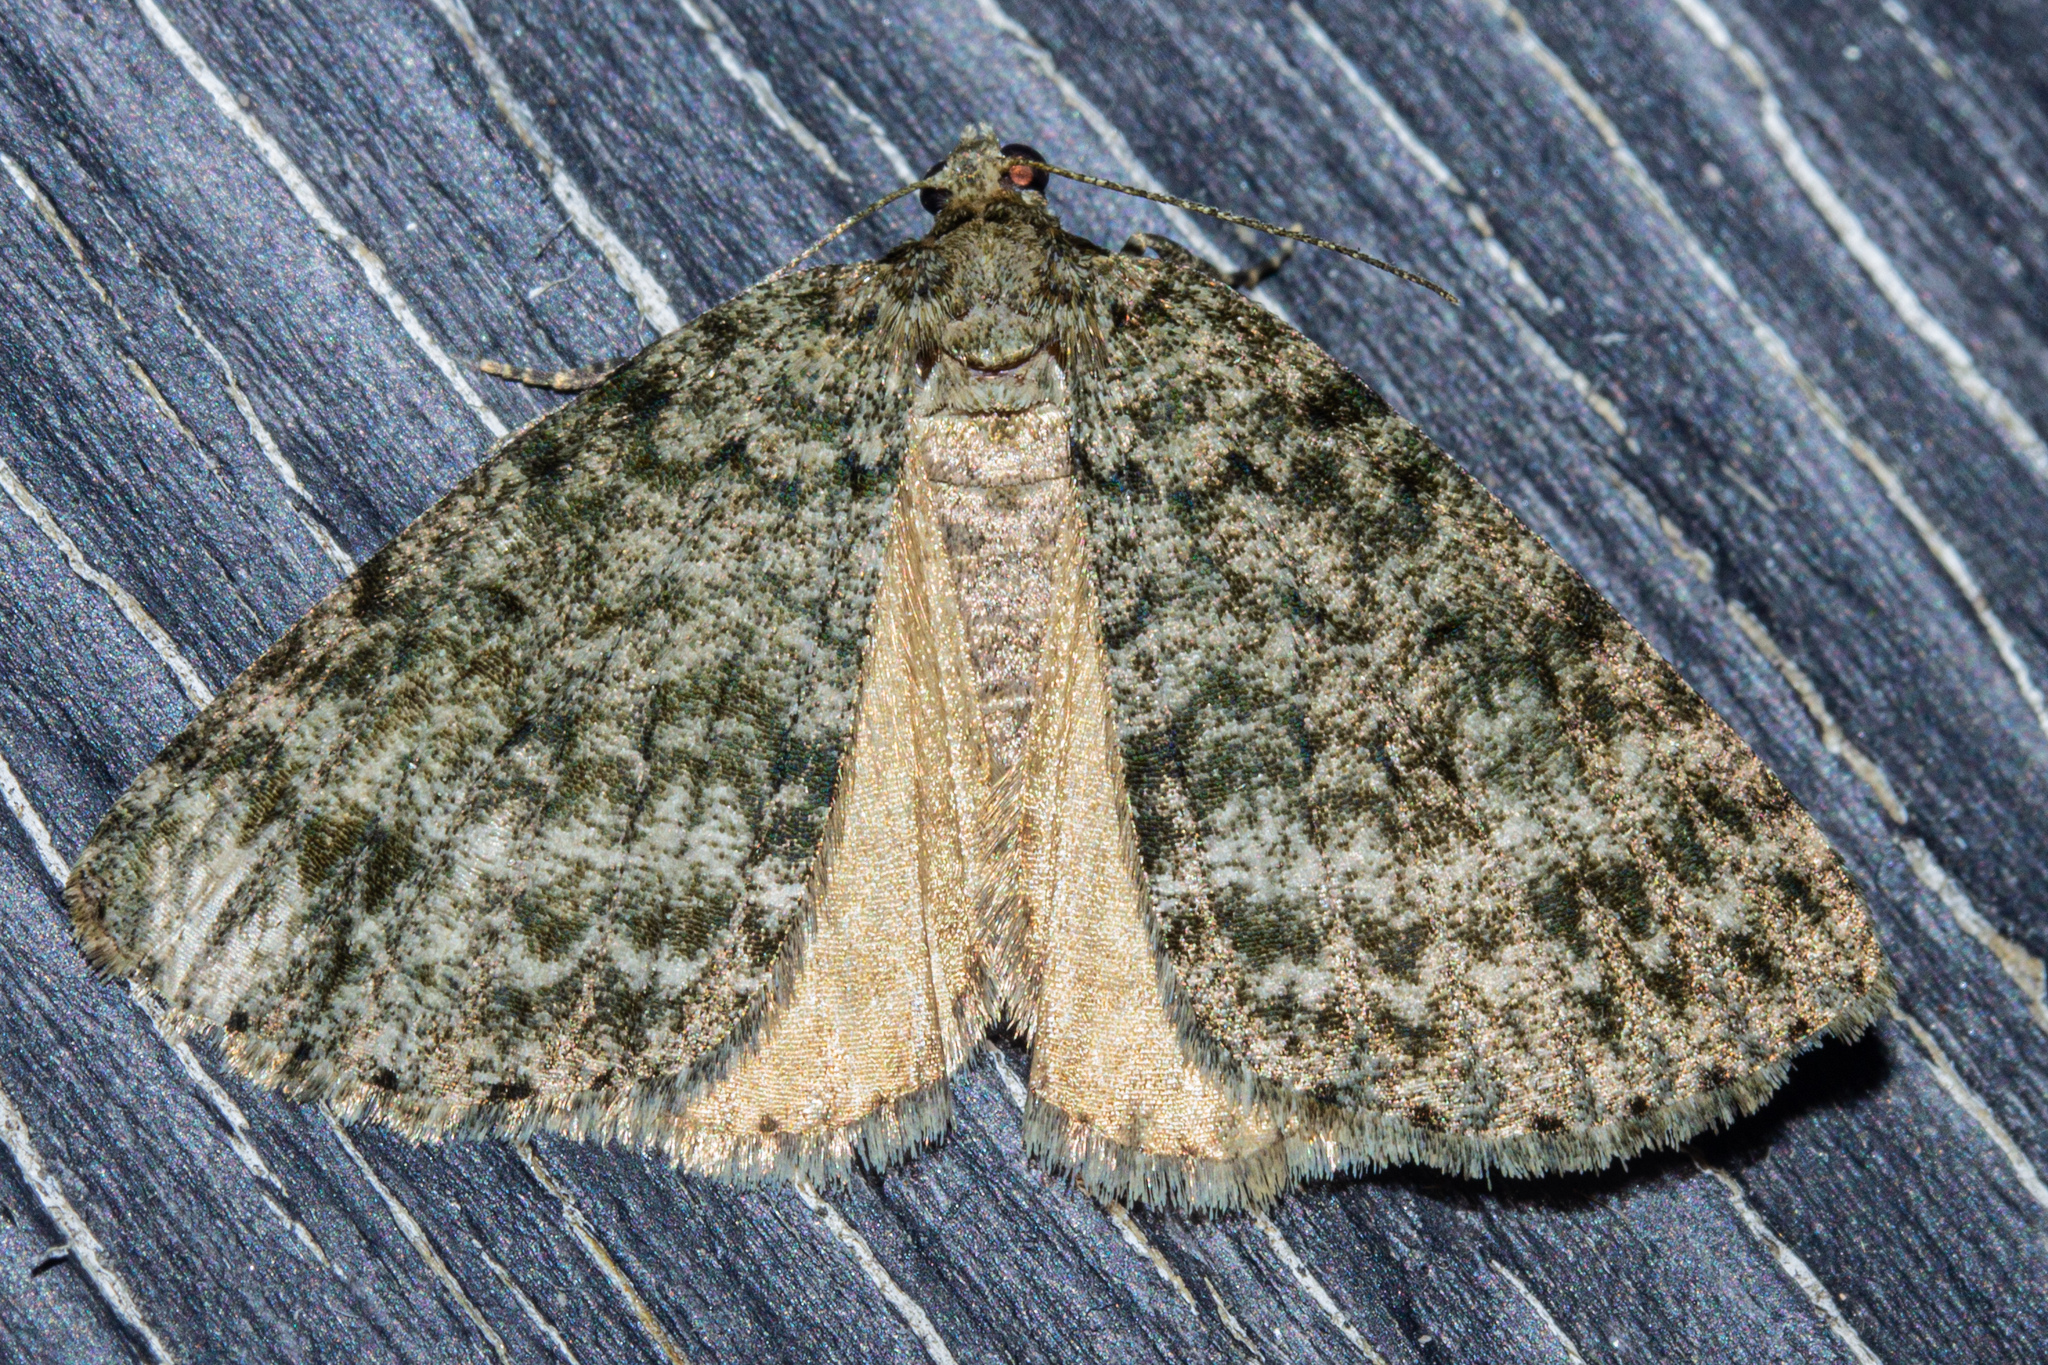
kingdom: Animalia
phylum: Arthropoda
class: Insecta
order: Lepidoptera
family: Geometridae
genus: Pseudocoremia
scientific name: Pseudocoremia indistincta
